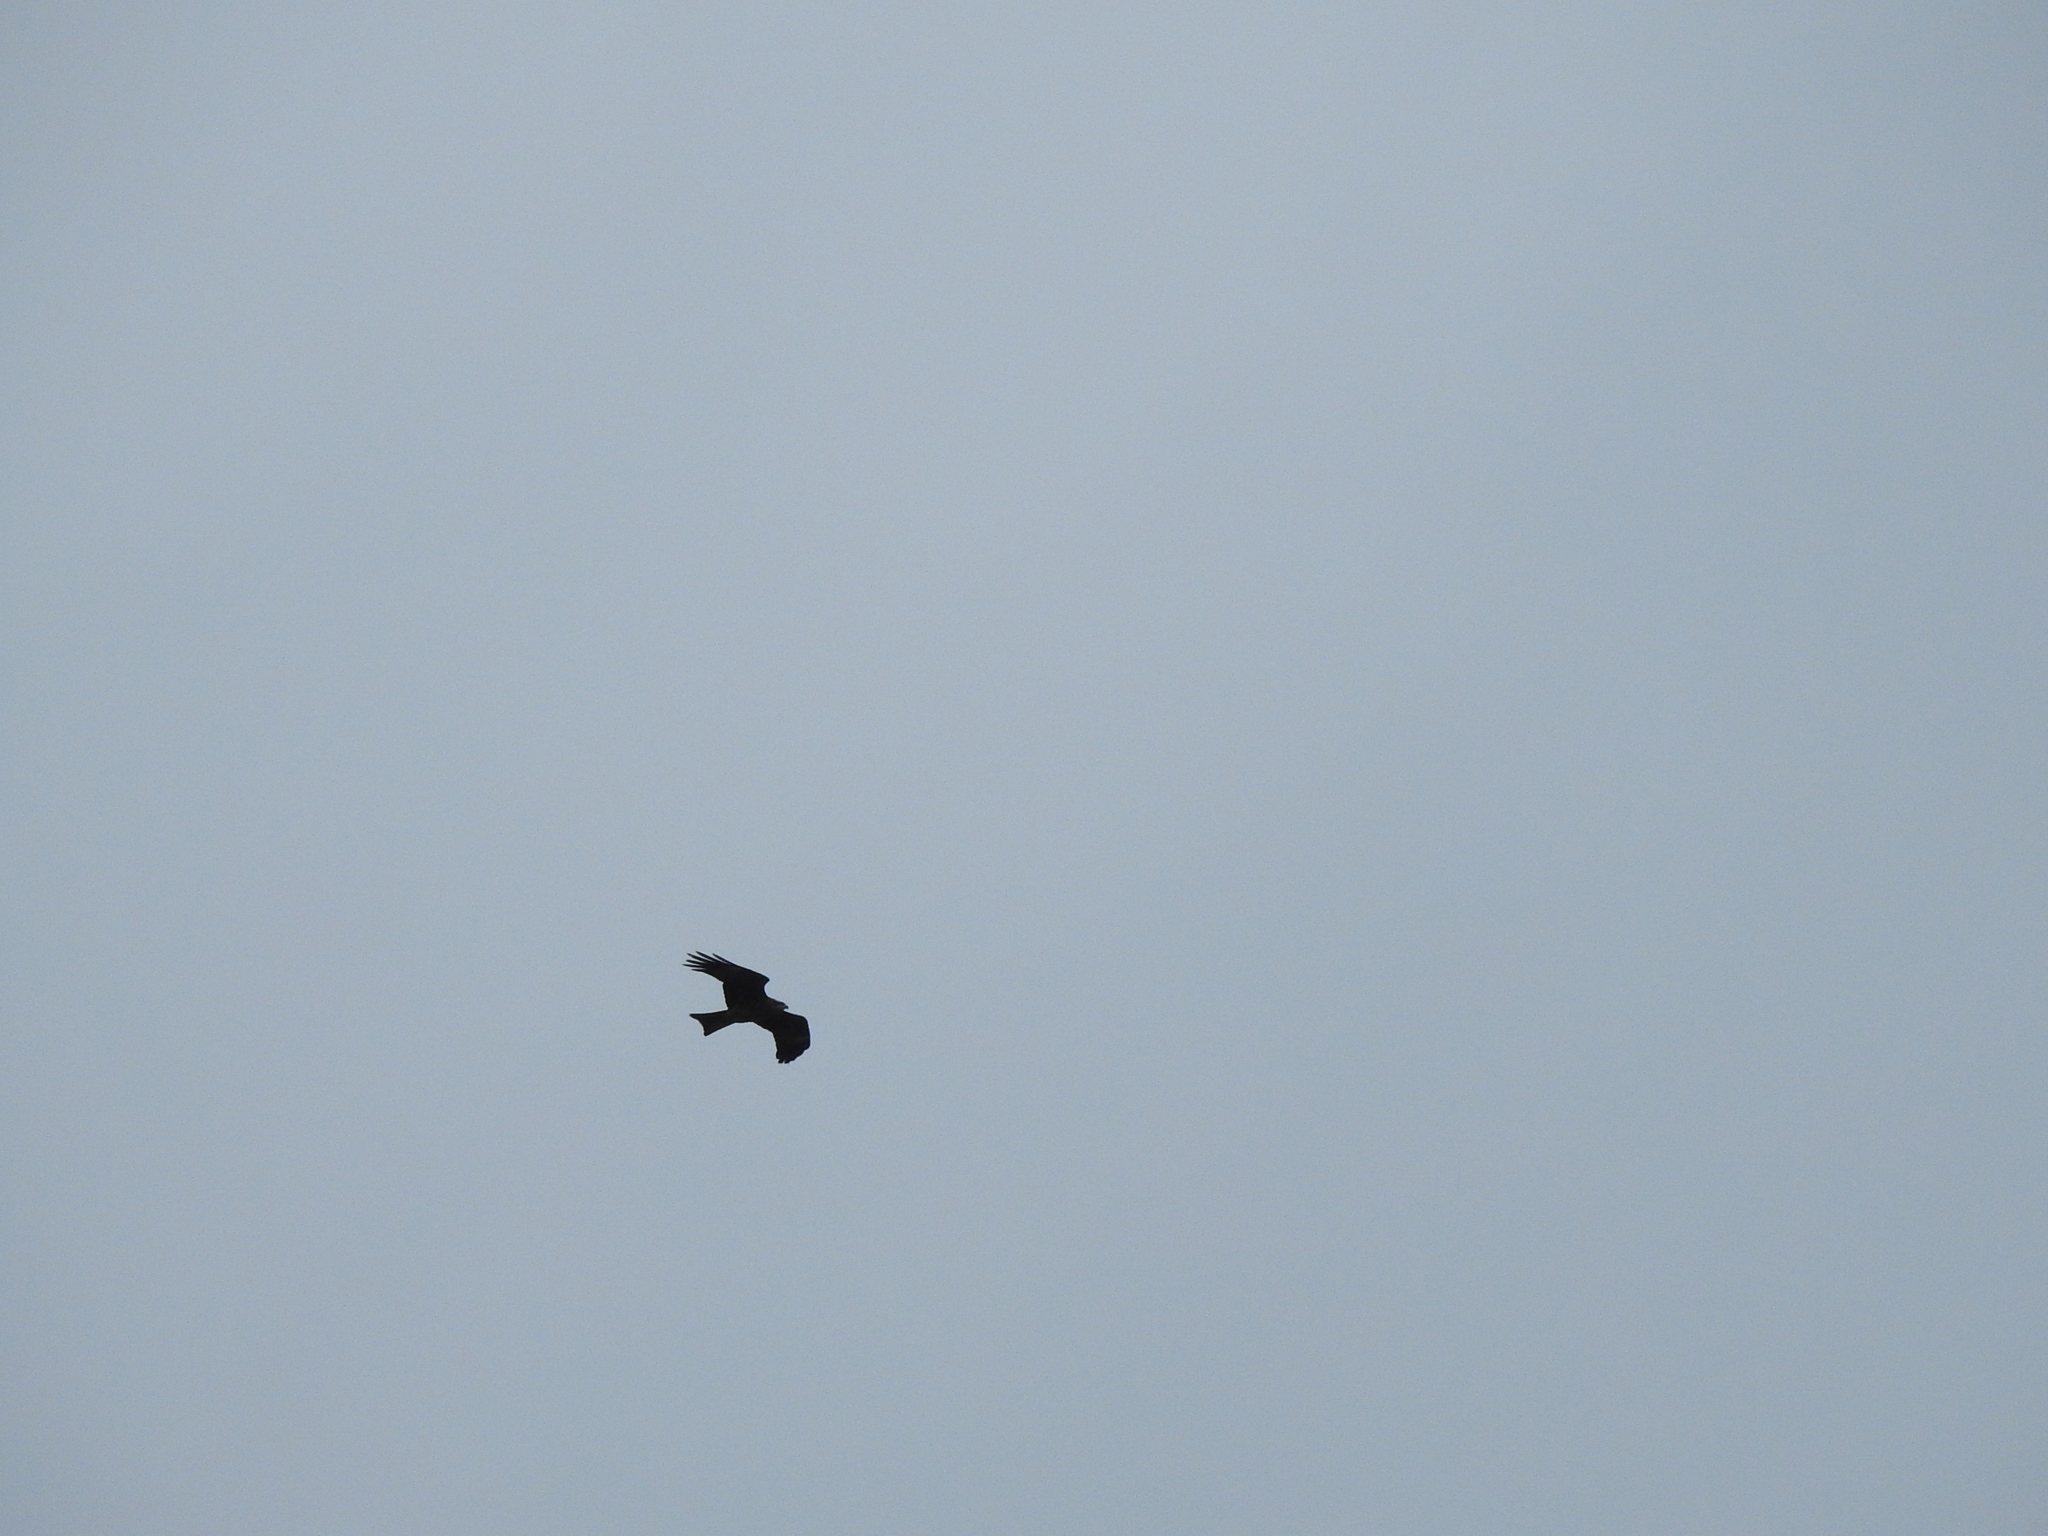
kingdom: Animalia
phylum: Chordata
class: Aves
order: Accipitriformes
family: Accipitridae
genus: Milvus
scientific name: Milvus migrans
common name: Black kite
